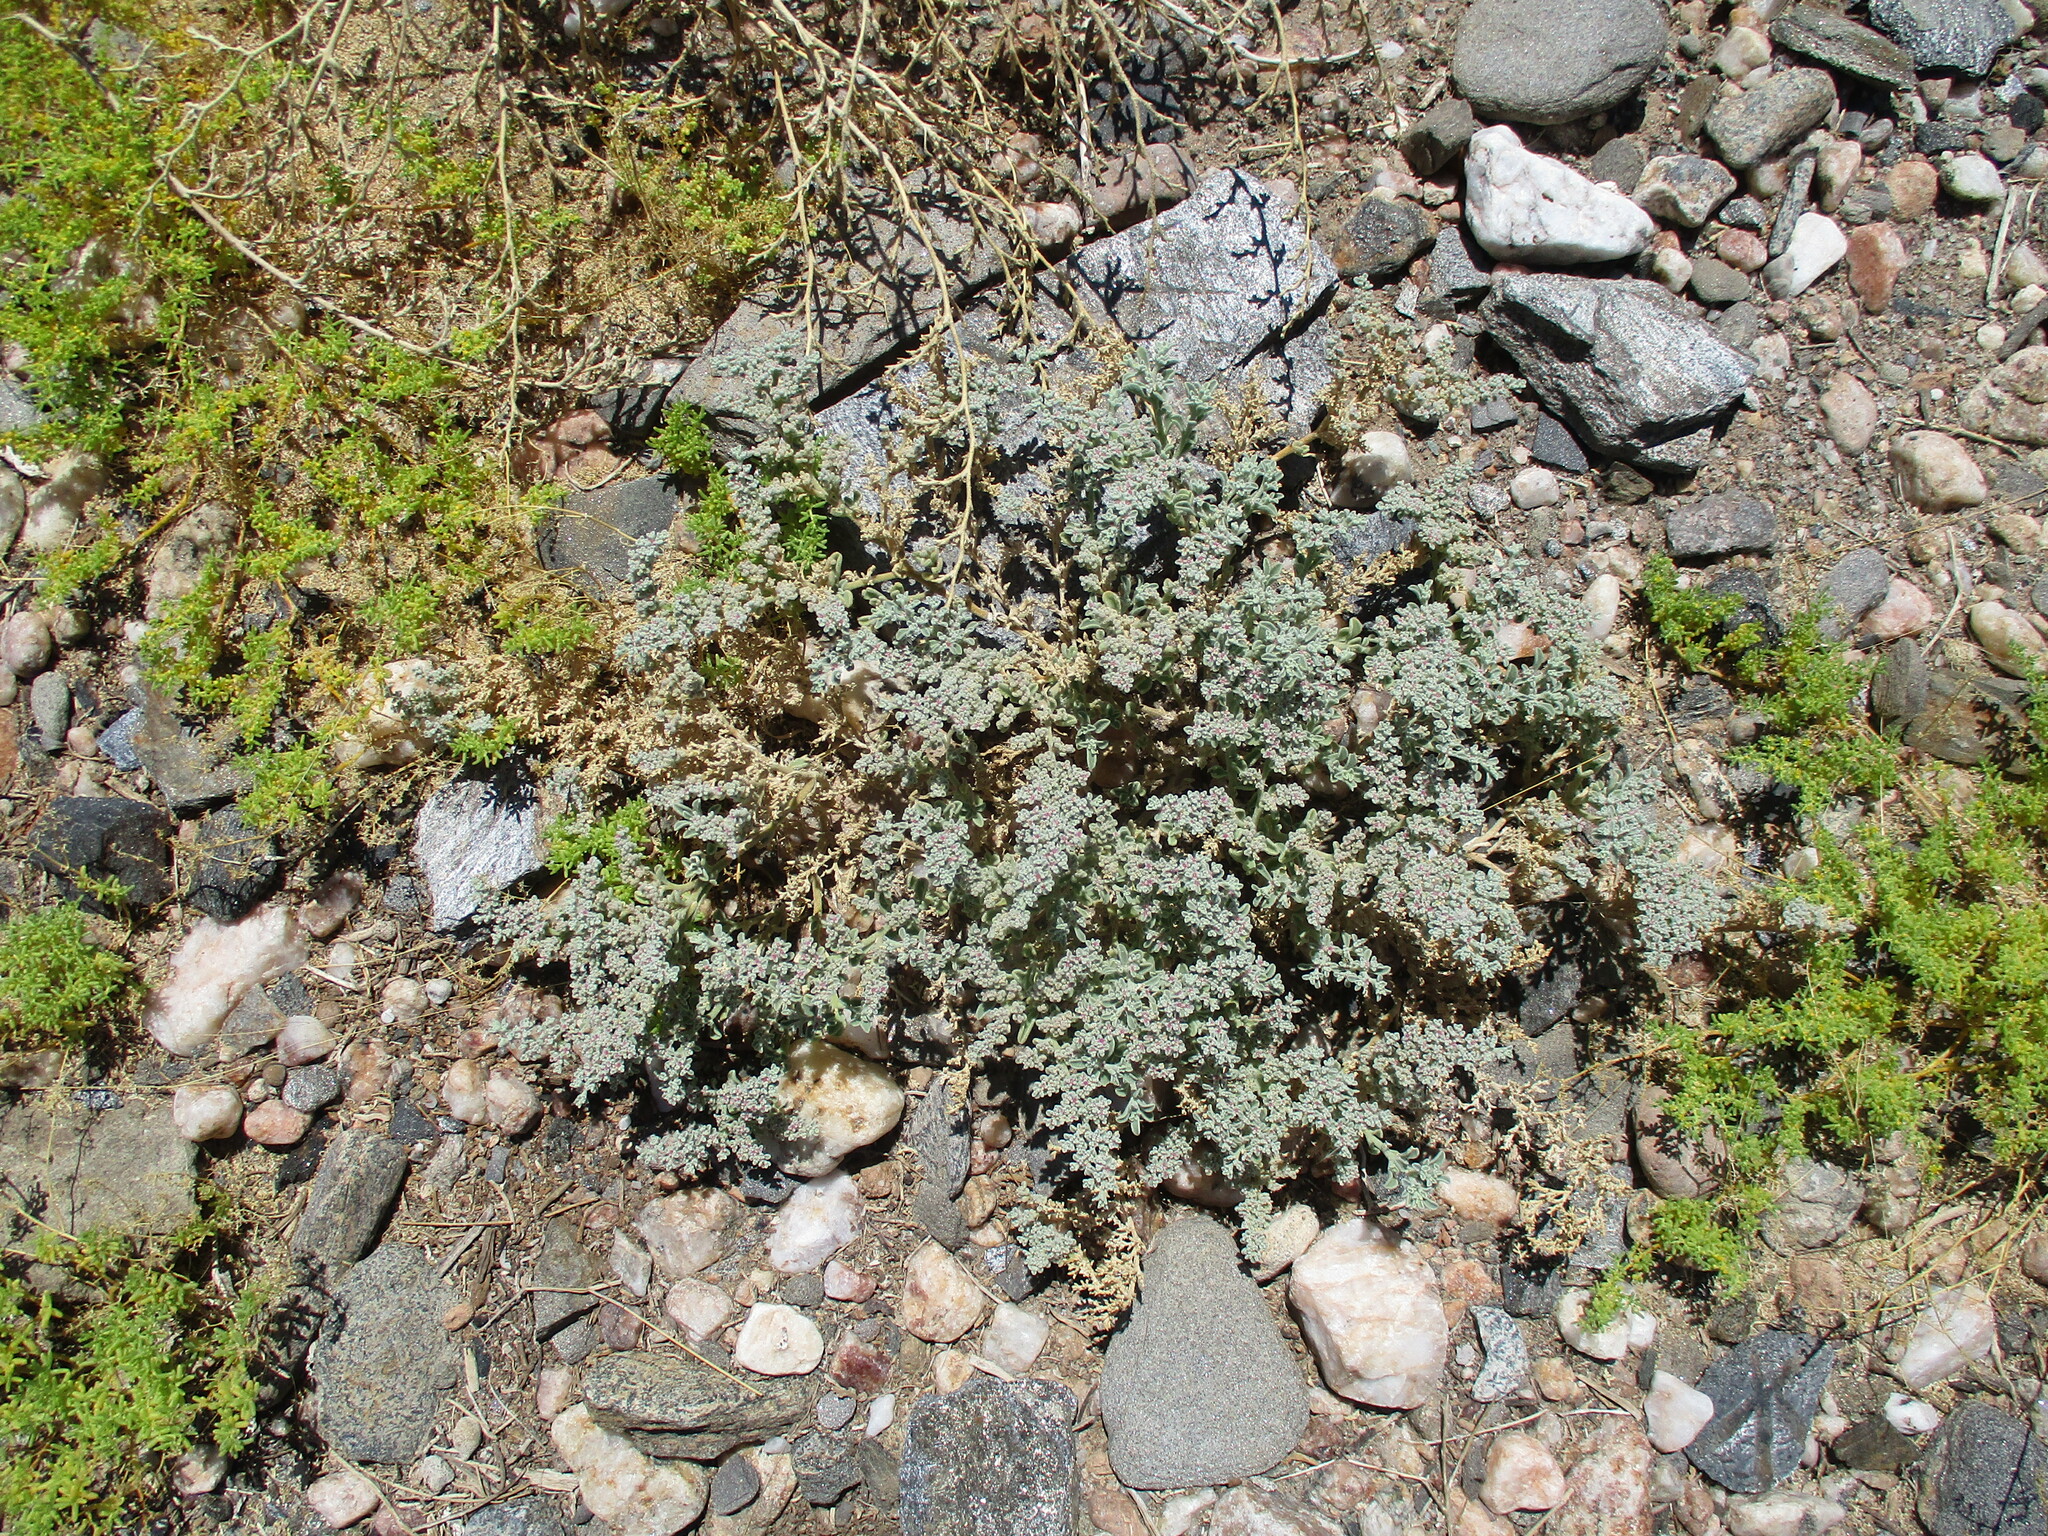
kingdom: Plantae
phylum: Tracheophyta
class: Magnoliopsida
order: Caryophyllales
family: Aizoaceae
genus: Aizoon
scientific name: Aizoon papulosum
